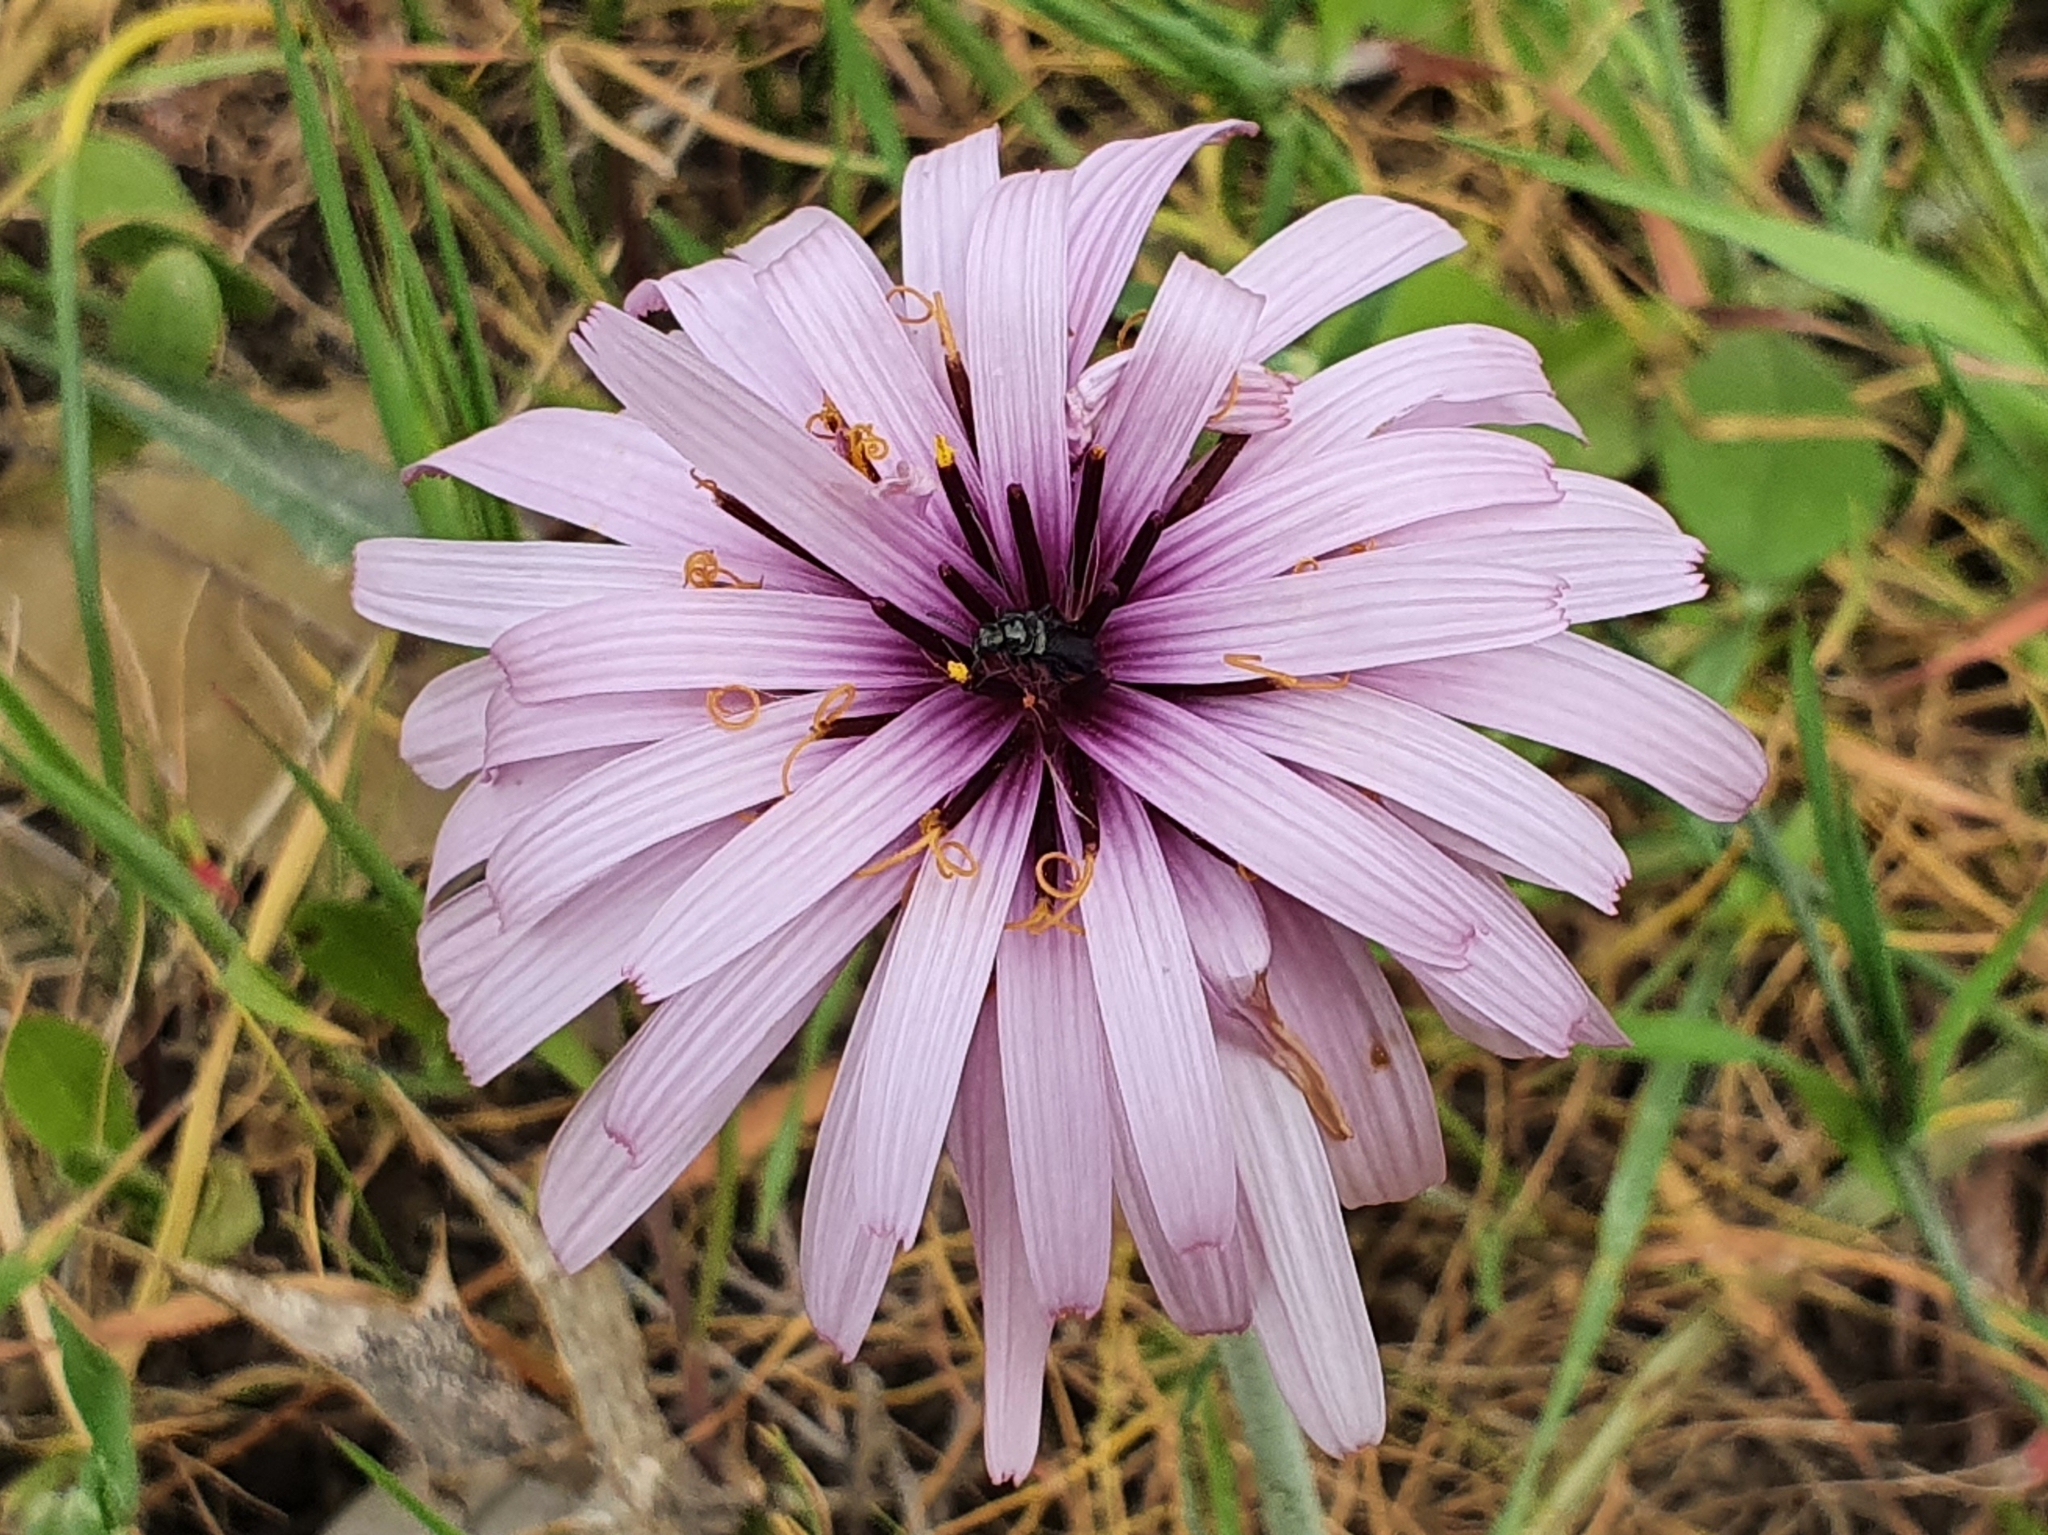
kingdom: Plantae
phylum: Tracheophyta
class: Magnoliopsida
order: Asterales
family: Asteraceae
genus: Pseudopodospermum
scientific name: Pseudopodospermum undulatum
